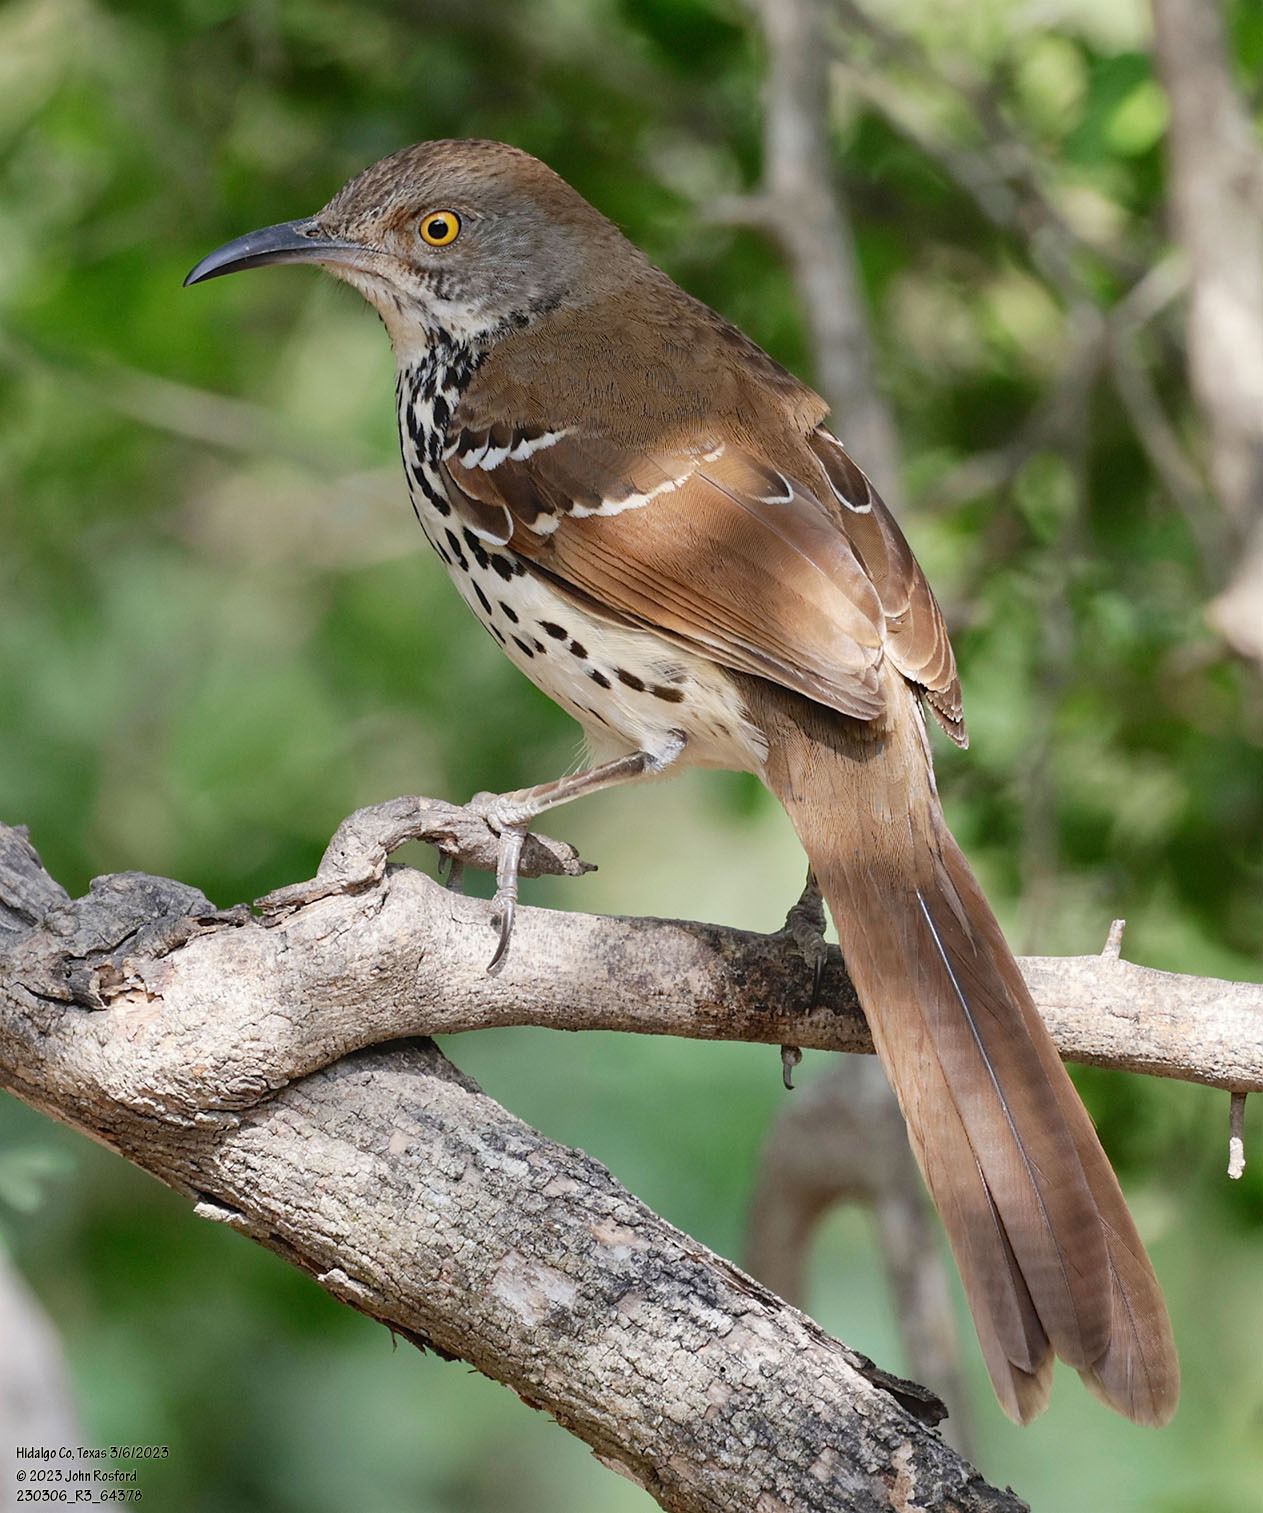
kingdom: Animalia
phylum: Chordata
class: Aves
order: Passeriformes
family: Mimidae
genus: Toxostoma
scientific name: Toxostoma longirostre
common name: Long-billed thrasher
